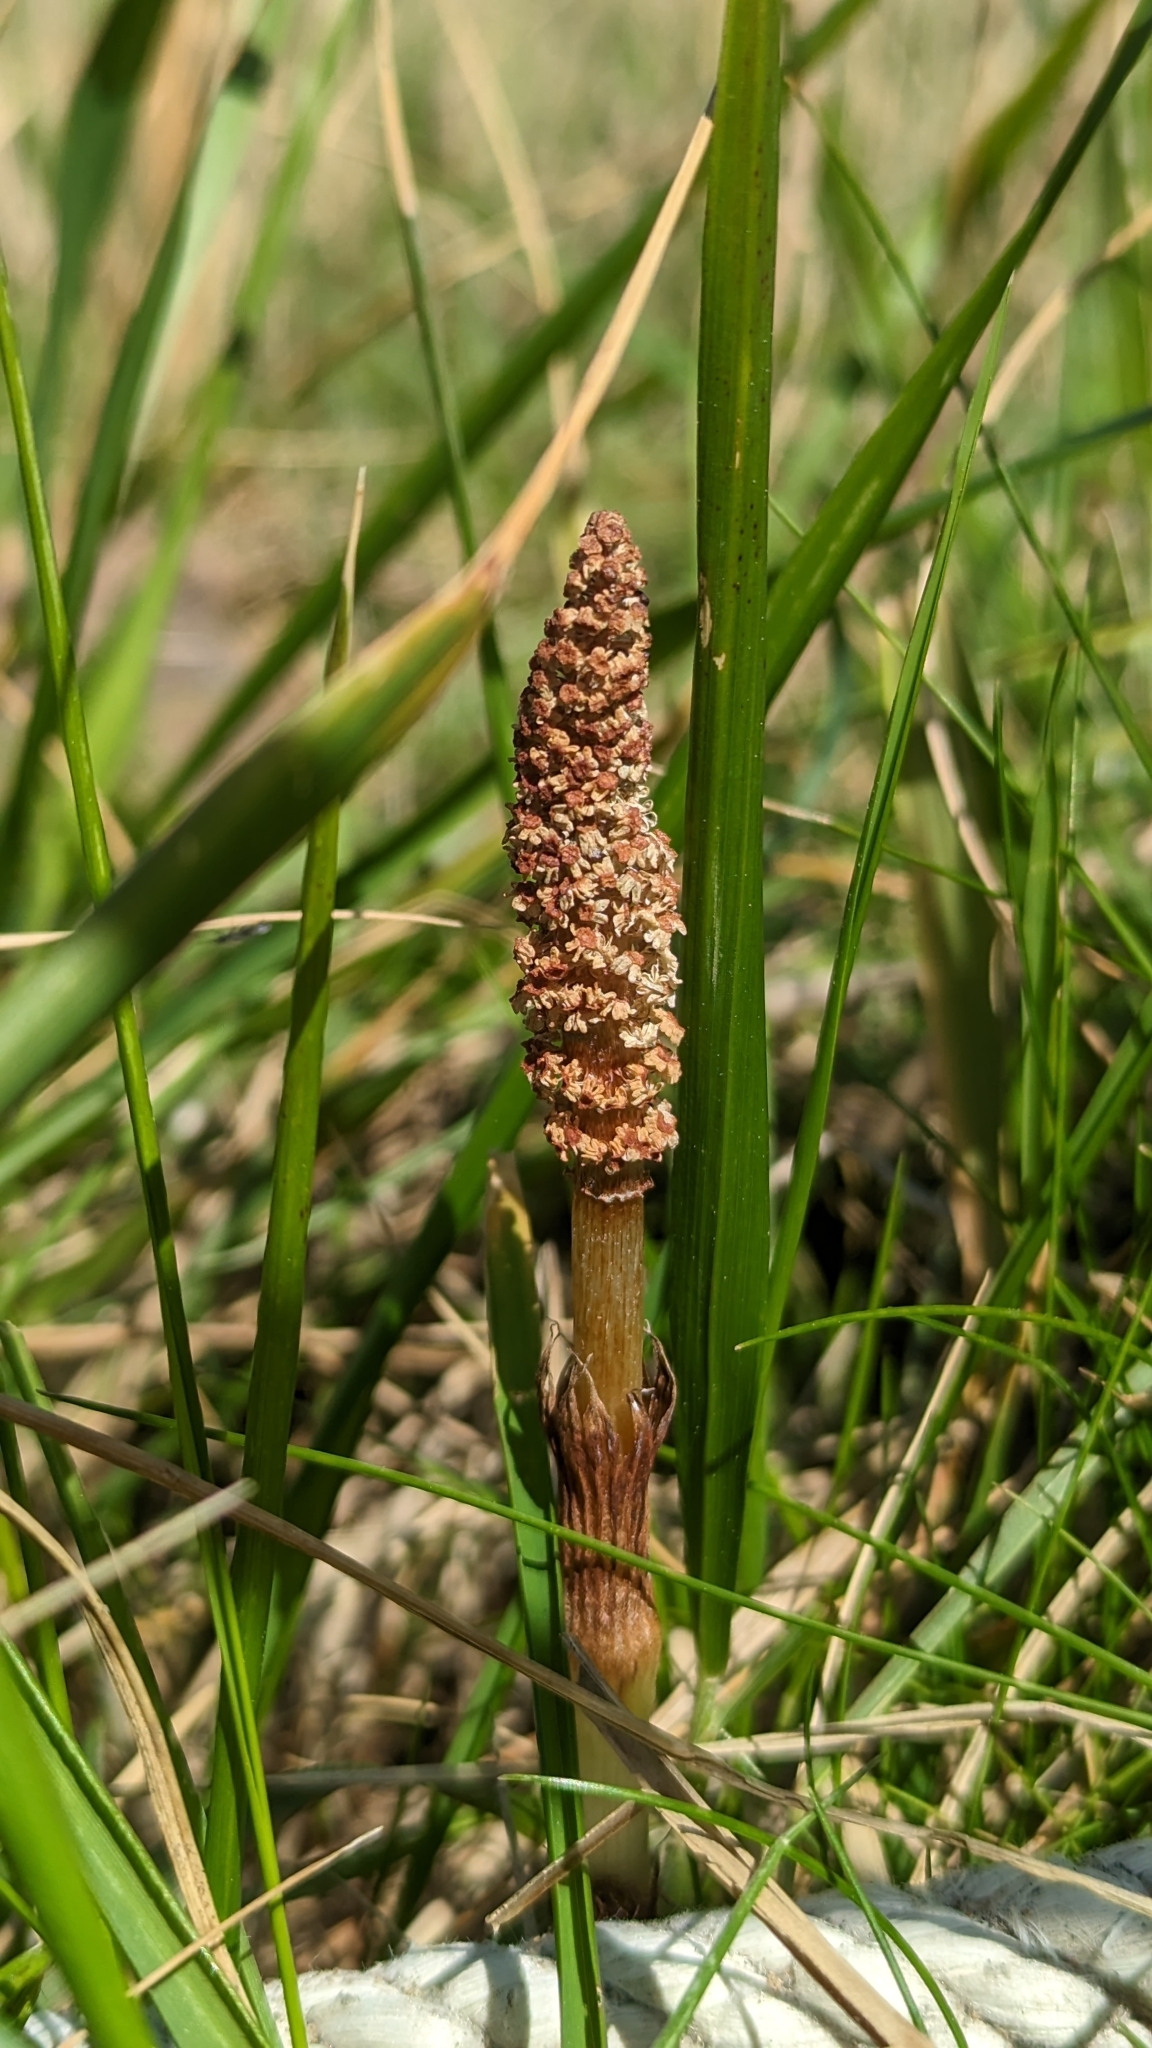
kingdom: Plantae
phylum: Tracheophyta
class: Polypodiopsida
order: Equisetales
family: Equisetaceae
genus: Equisetum
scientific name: Equisetum telmateia
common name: Great horsetail
